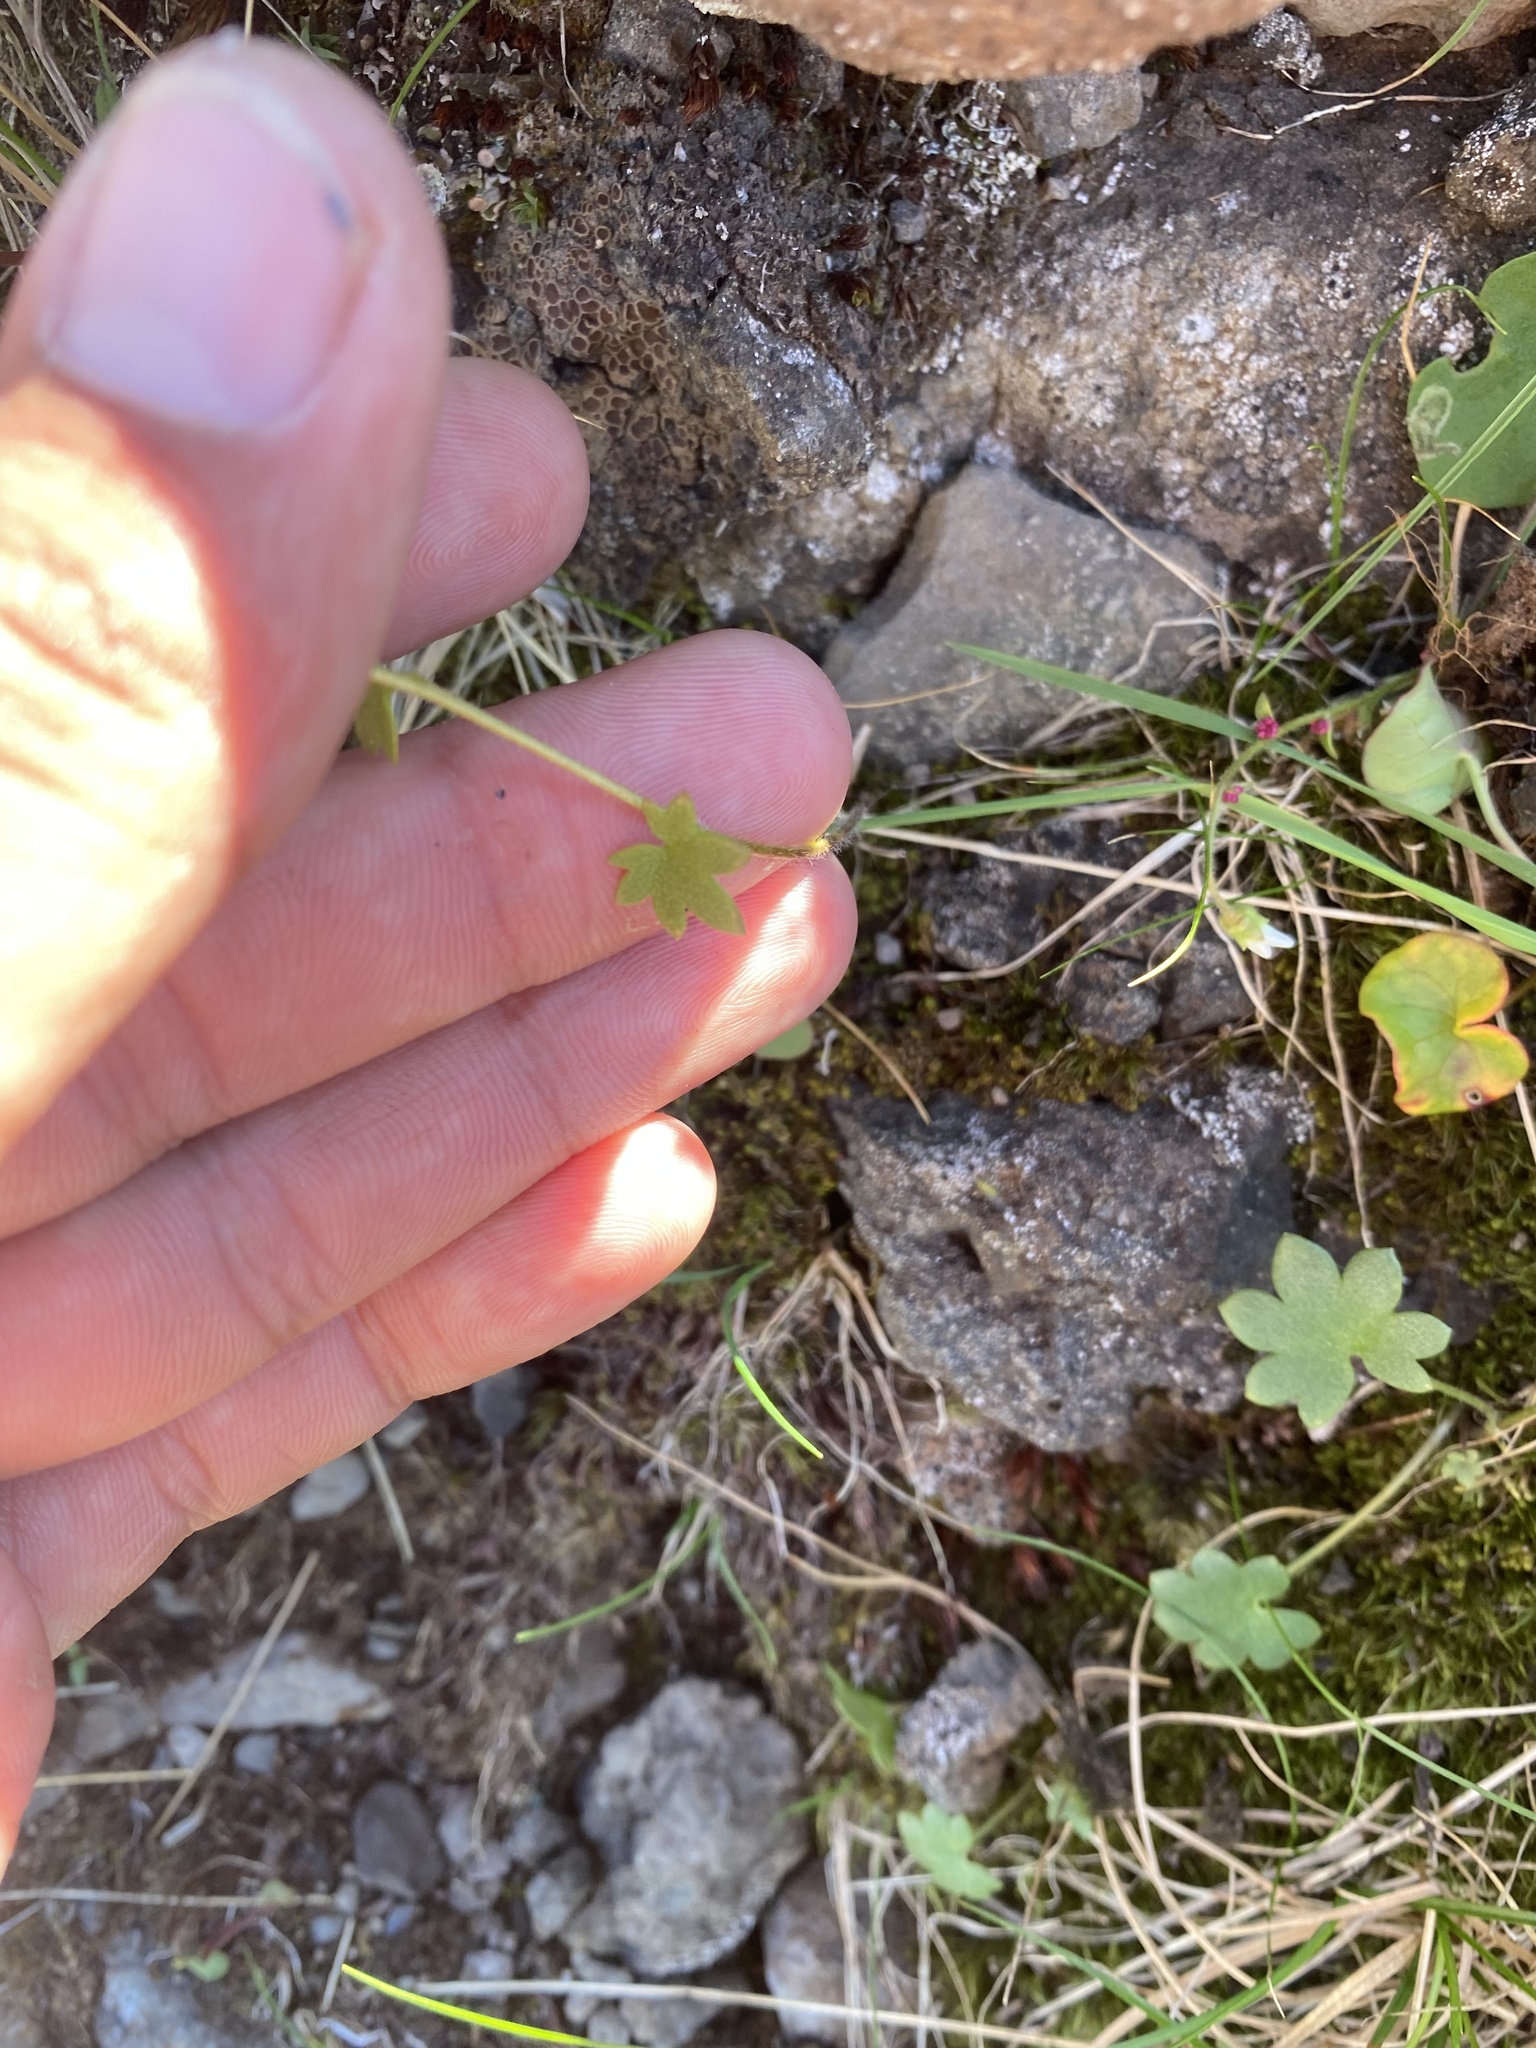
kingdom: Plantae
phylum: Tracheophyta
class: Magnoliopsida
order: Saxifragales
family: Saxifragaceae
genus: Saxifraga
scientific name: Saxifraga cernua
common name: Drooping saxifrage
